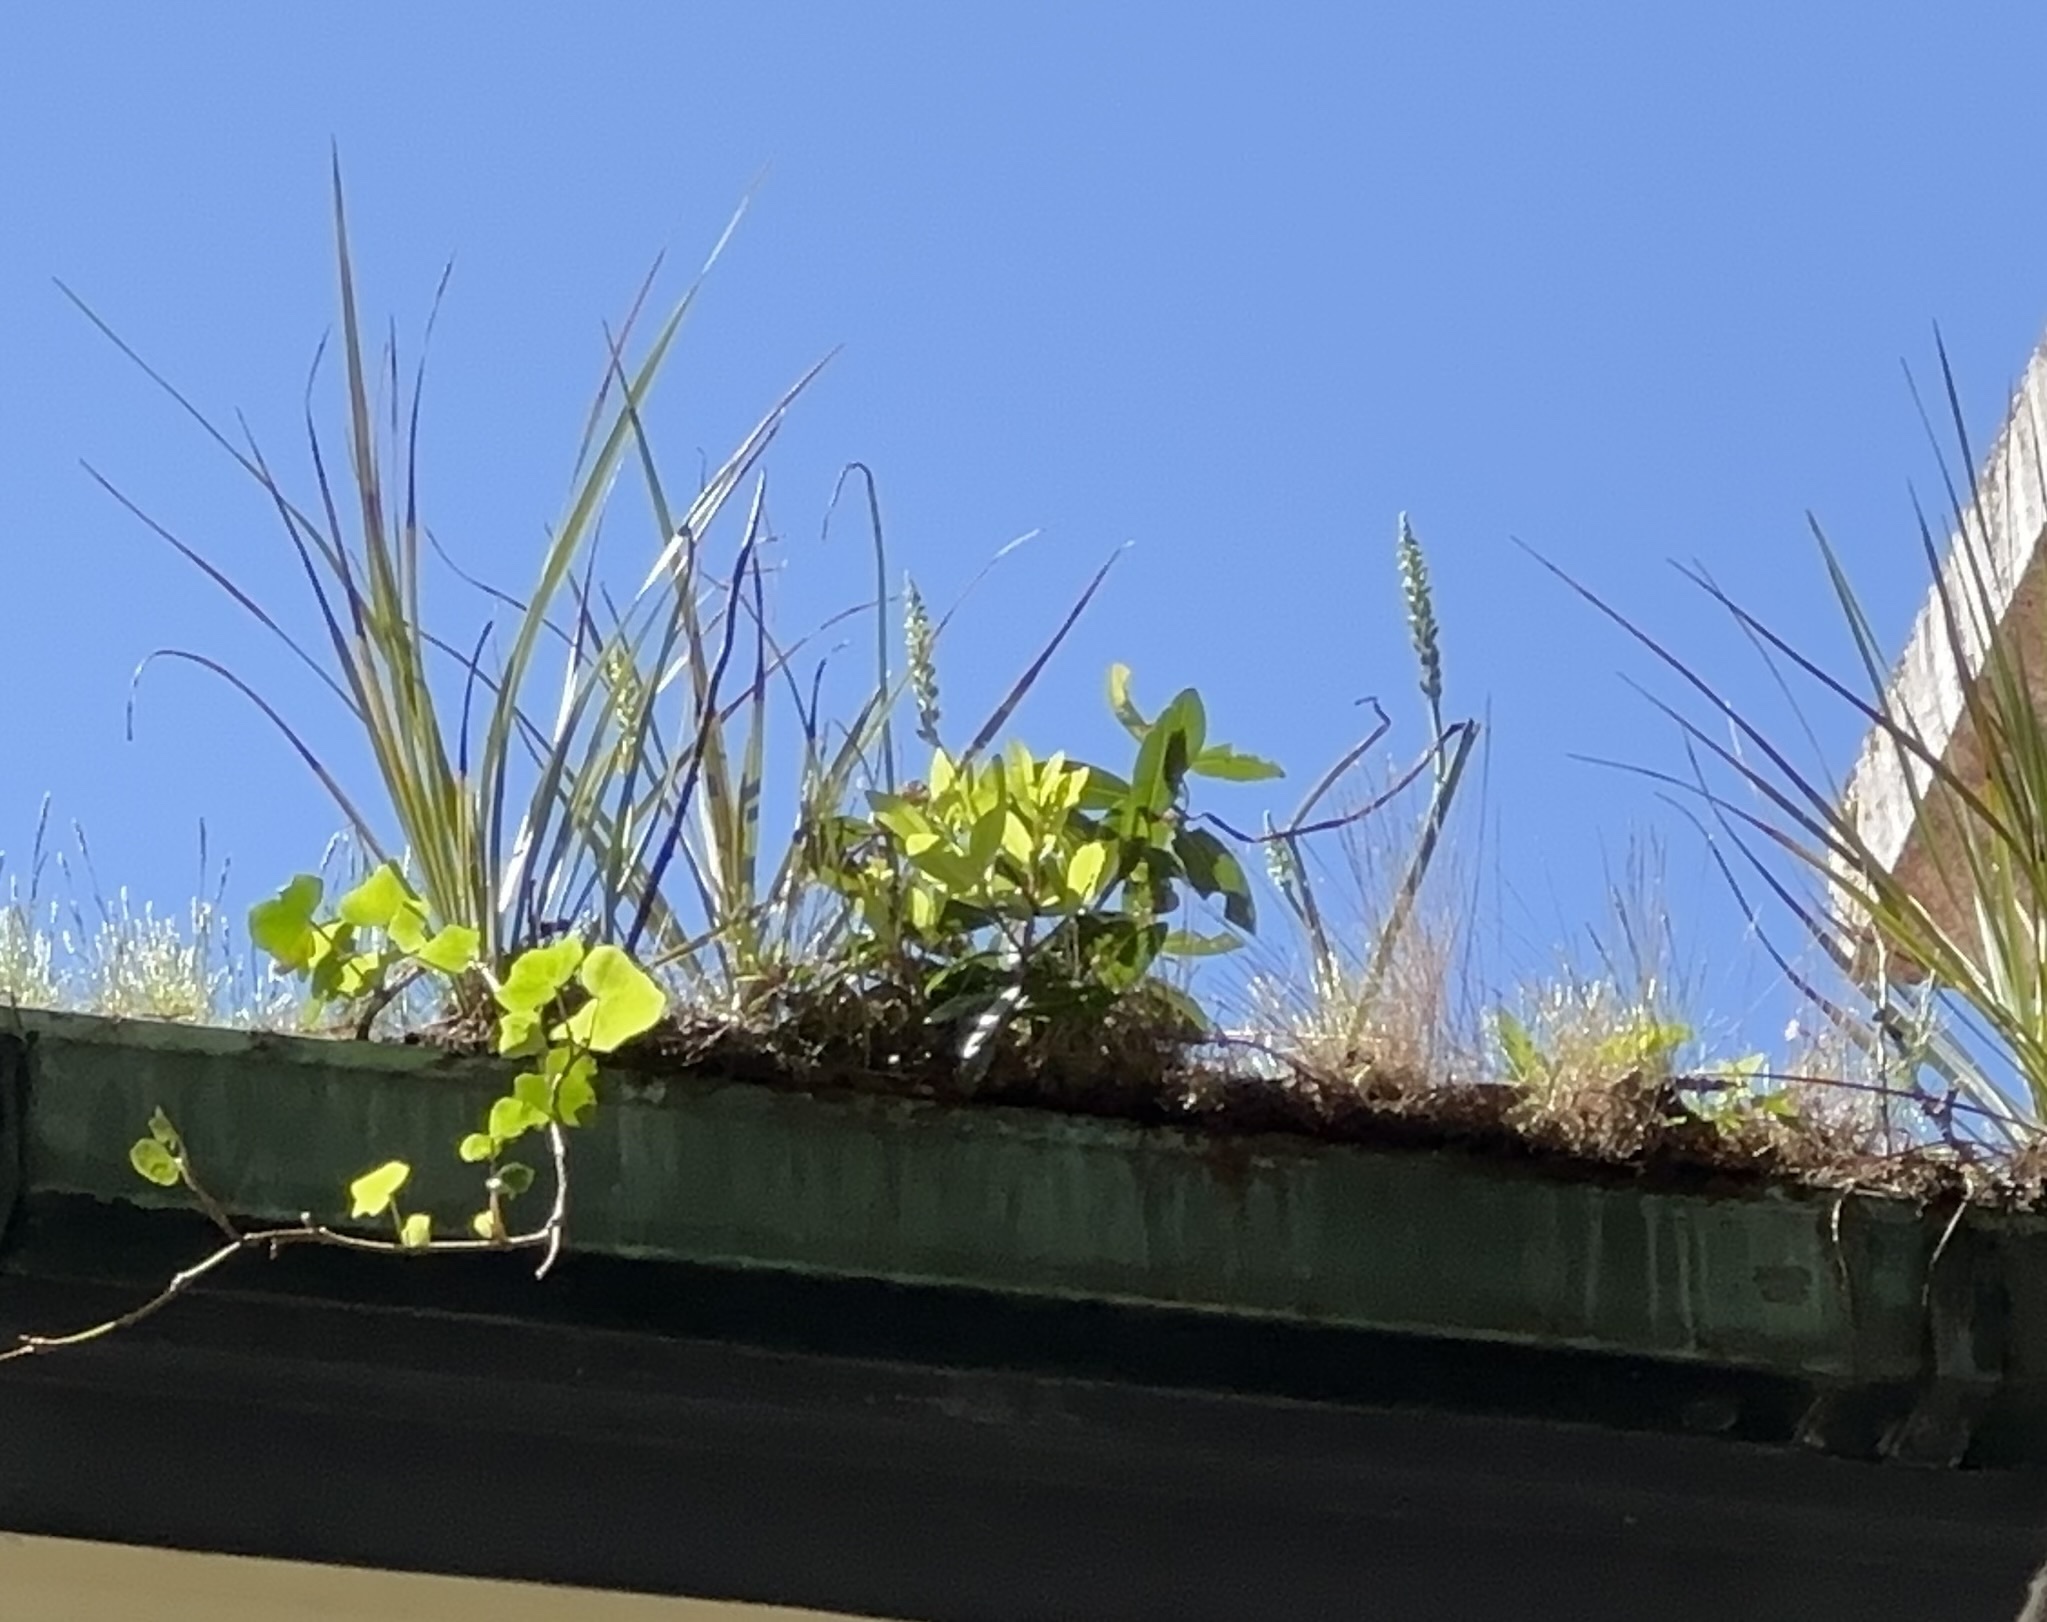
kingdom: Plantae
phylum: Tracheophyta
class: Liliopsida
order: Asparagales
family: Orchidaceae
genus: Microtis
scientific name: Microtis unifolia
